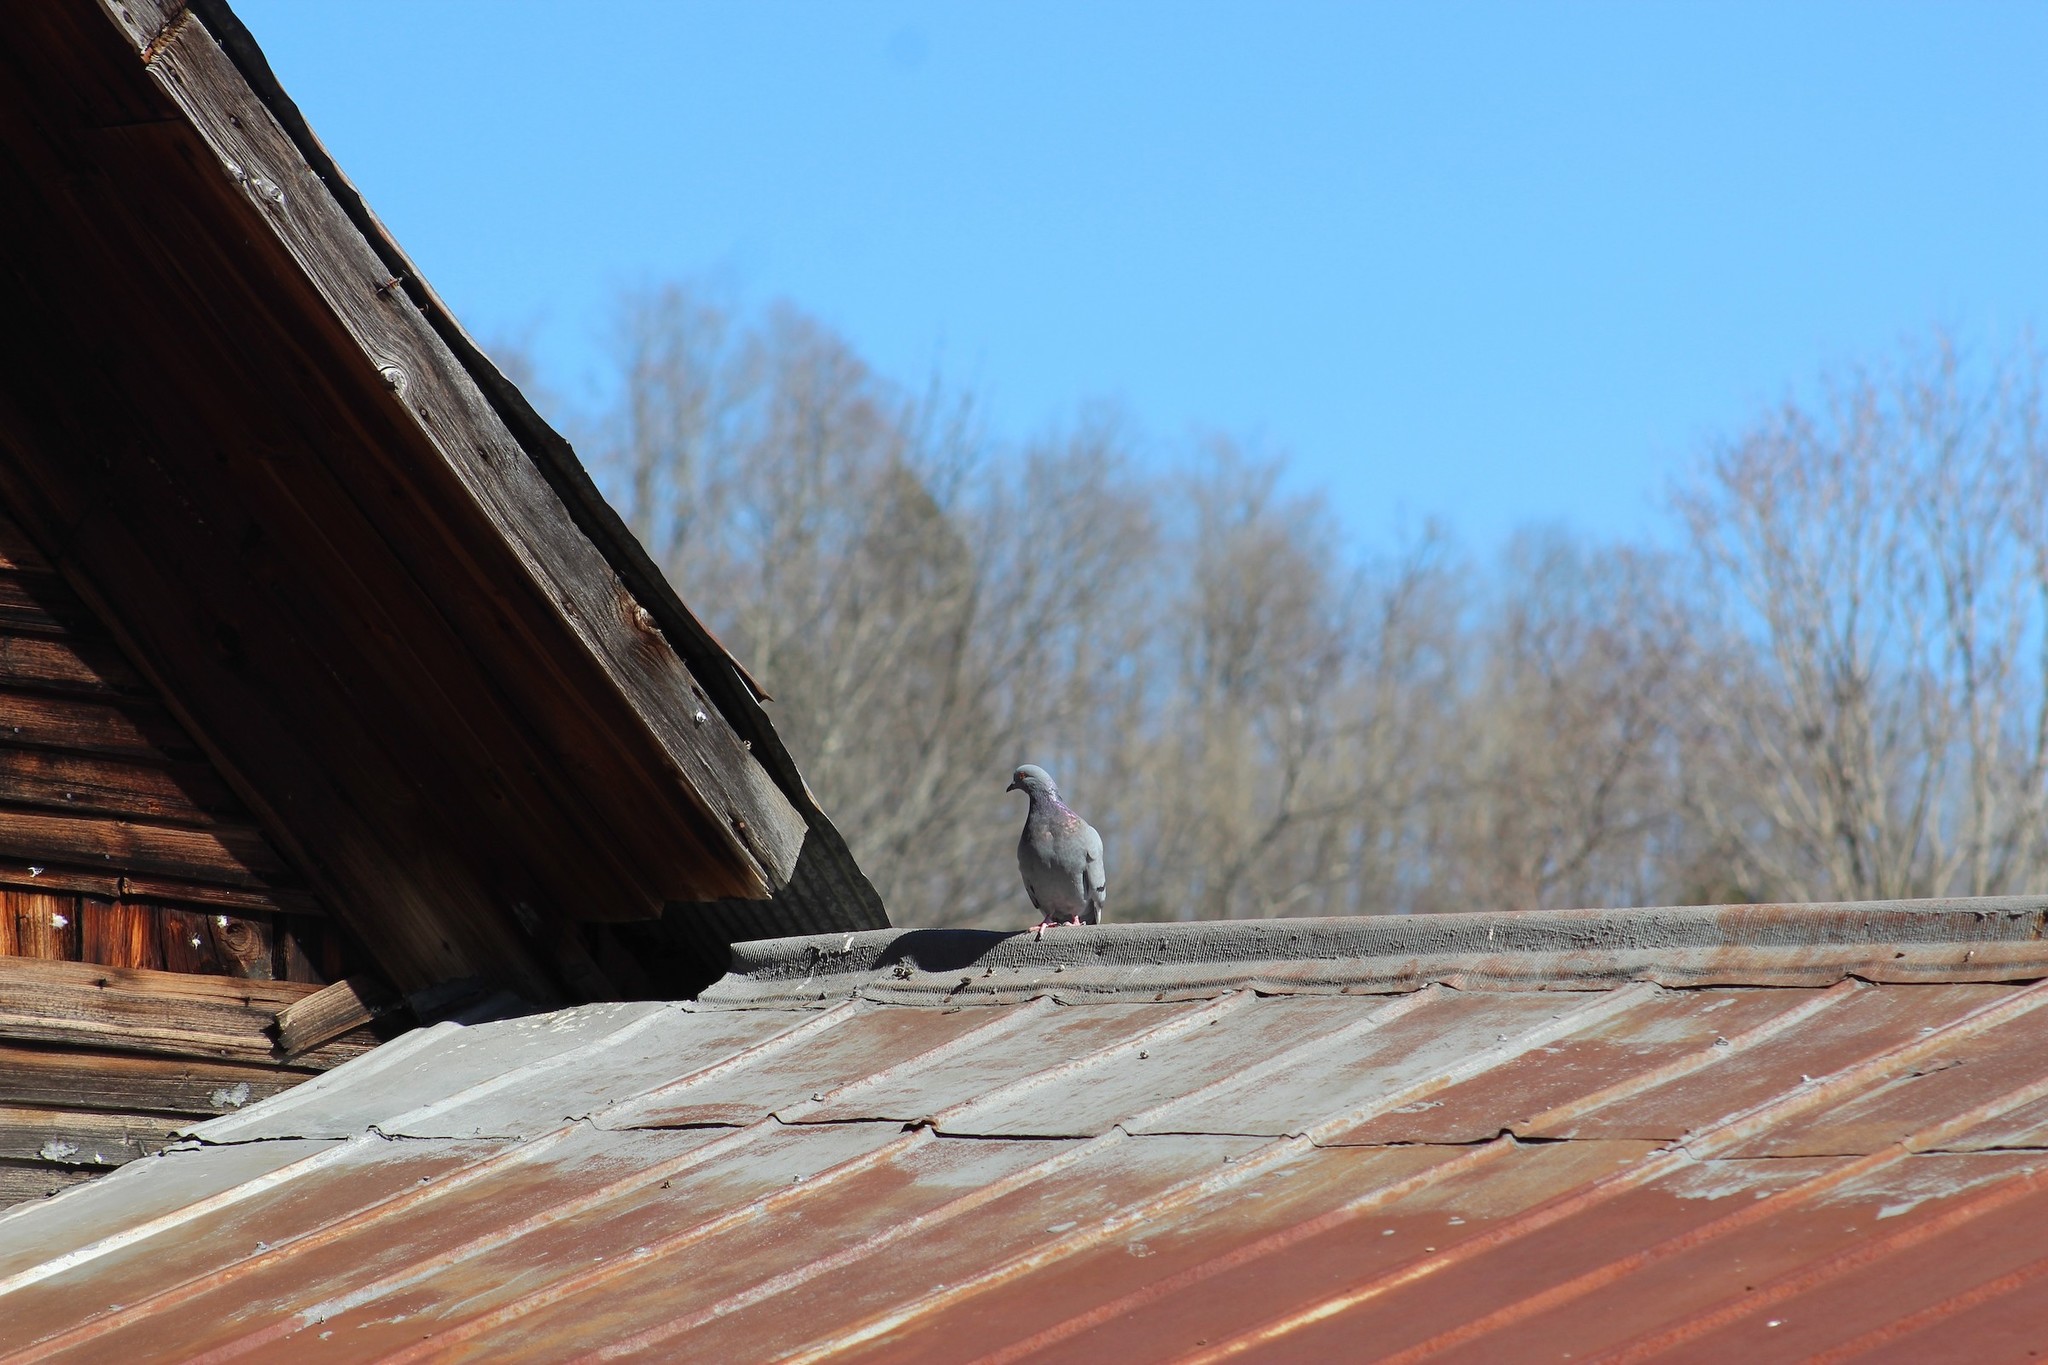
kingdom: Animalia
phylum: Chordata
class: Aves
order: Columbiformes
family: Columbidae
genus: Columba
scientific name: Columba livia
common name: Rock pigeon
